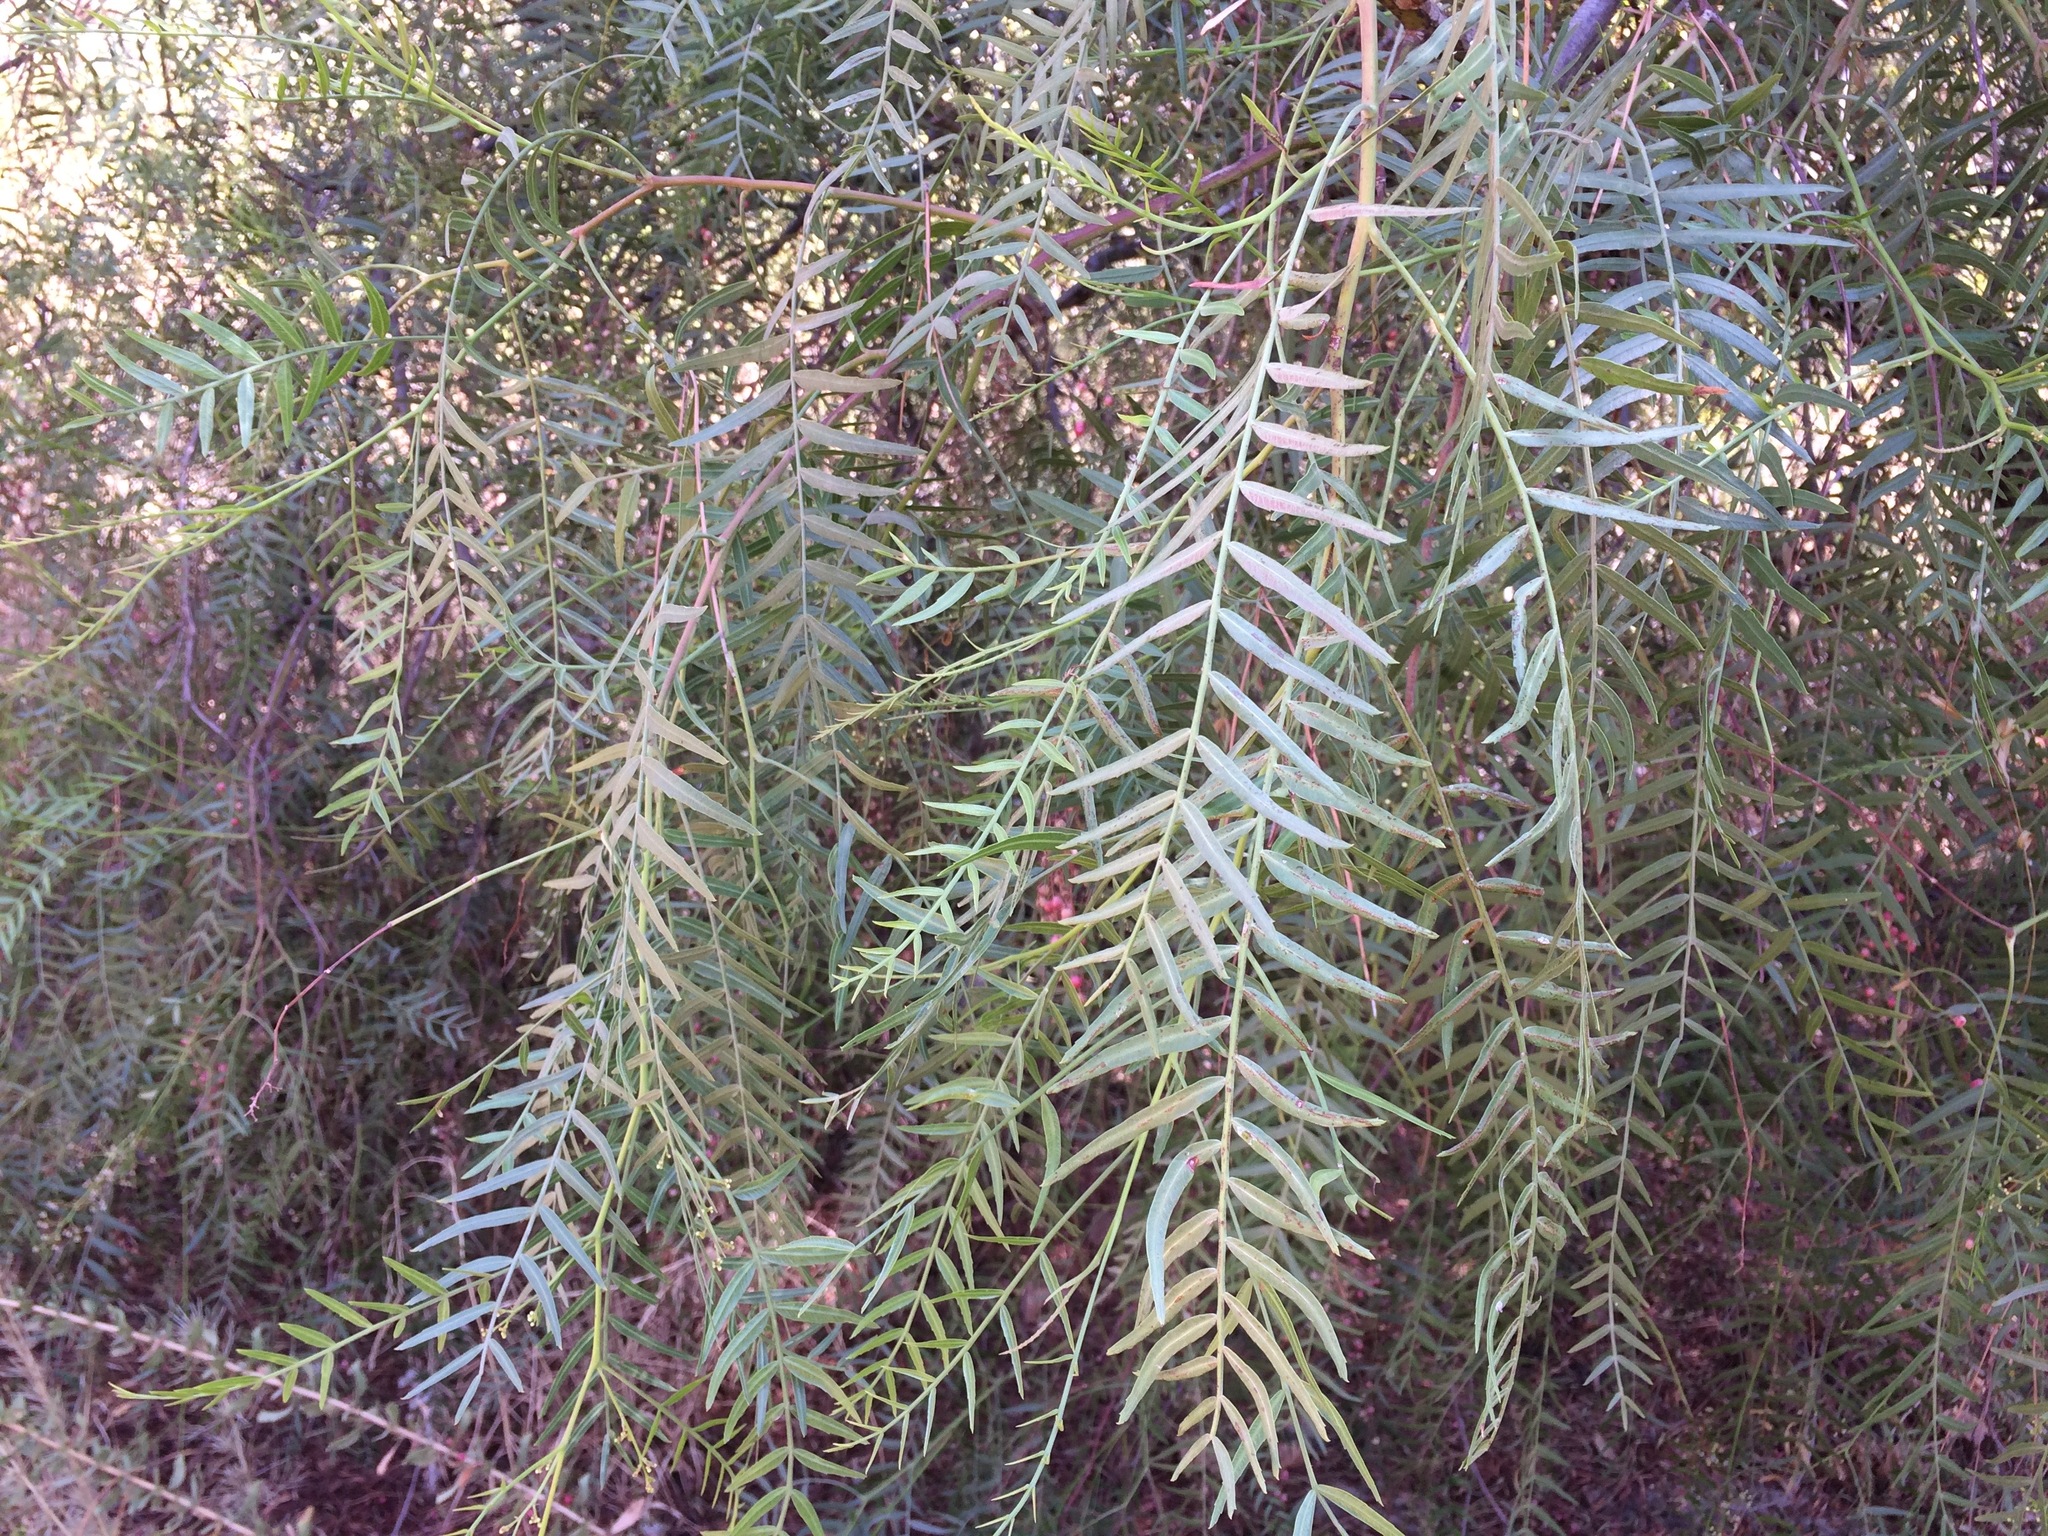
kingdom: Plantae
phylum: Tracheophyta
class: Magnoliopsida
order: Sapindales
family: Anacardiaceae
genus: Schinus
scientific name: Schinus molle
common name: Peruvian peppertree
